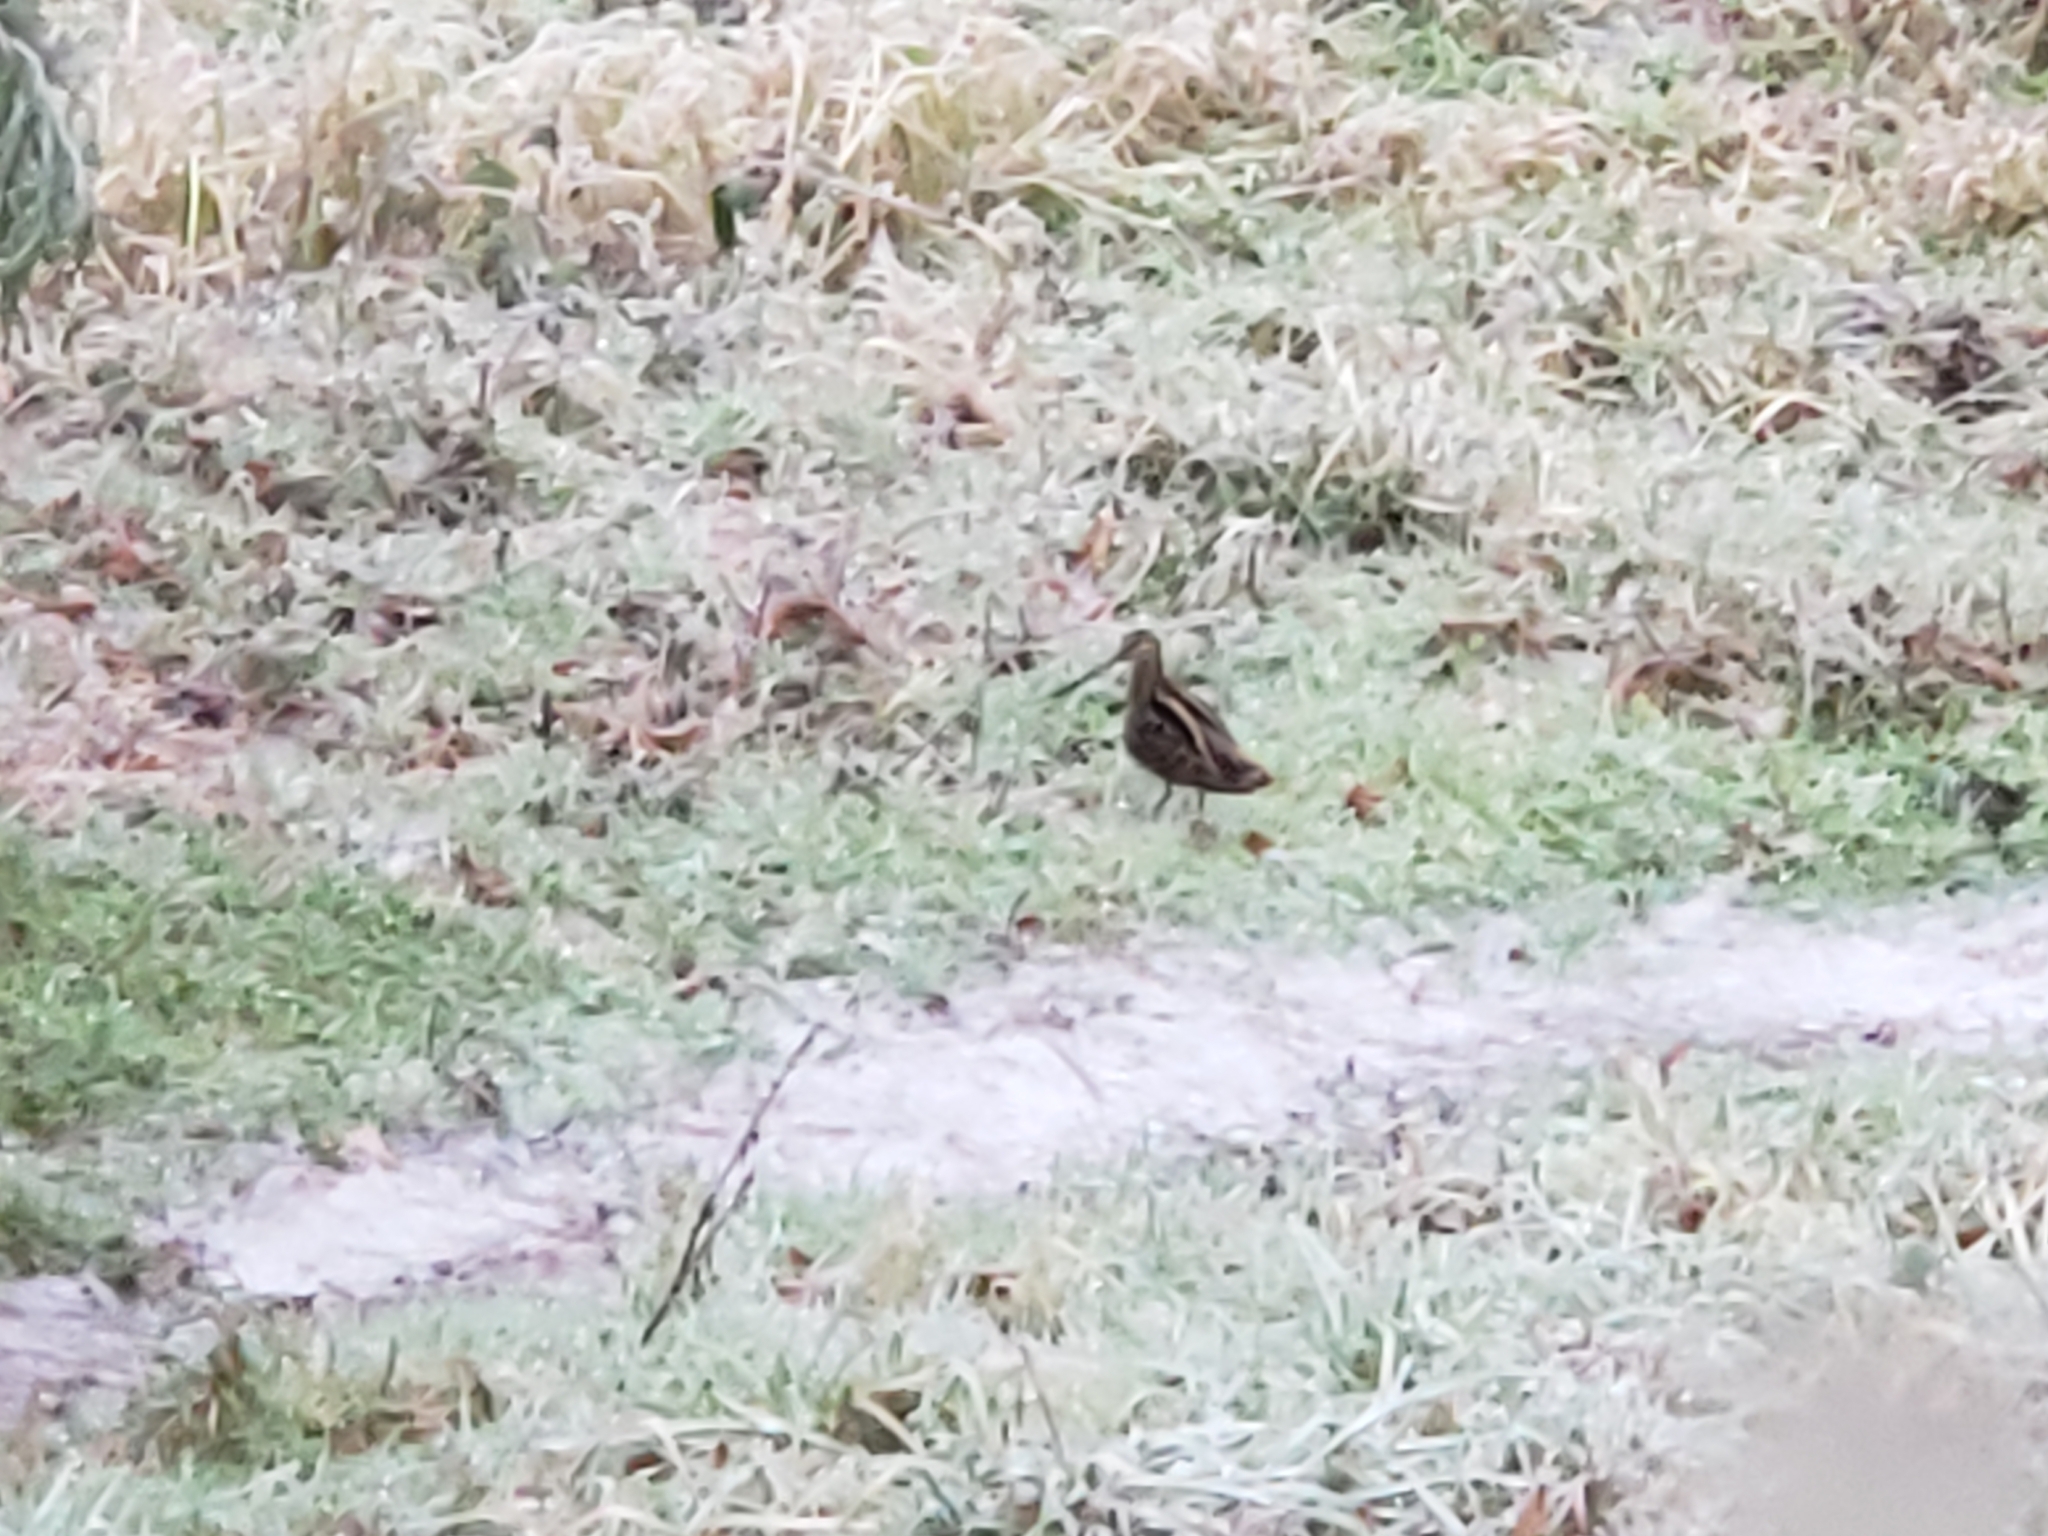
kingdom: Animalia
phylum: Chordata
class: Aves
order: Charadriiformes
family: Scolopacidae
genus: Gallinago
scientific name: Gallinago delicata
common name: Wilson's snipe
